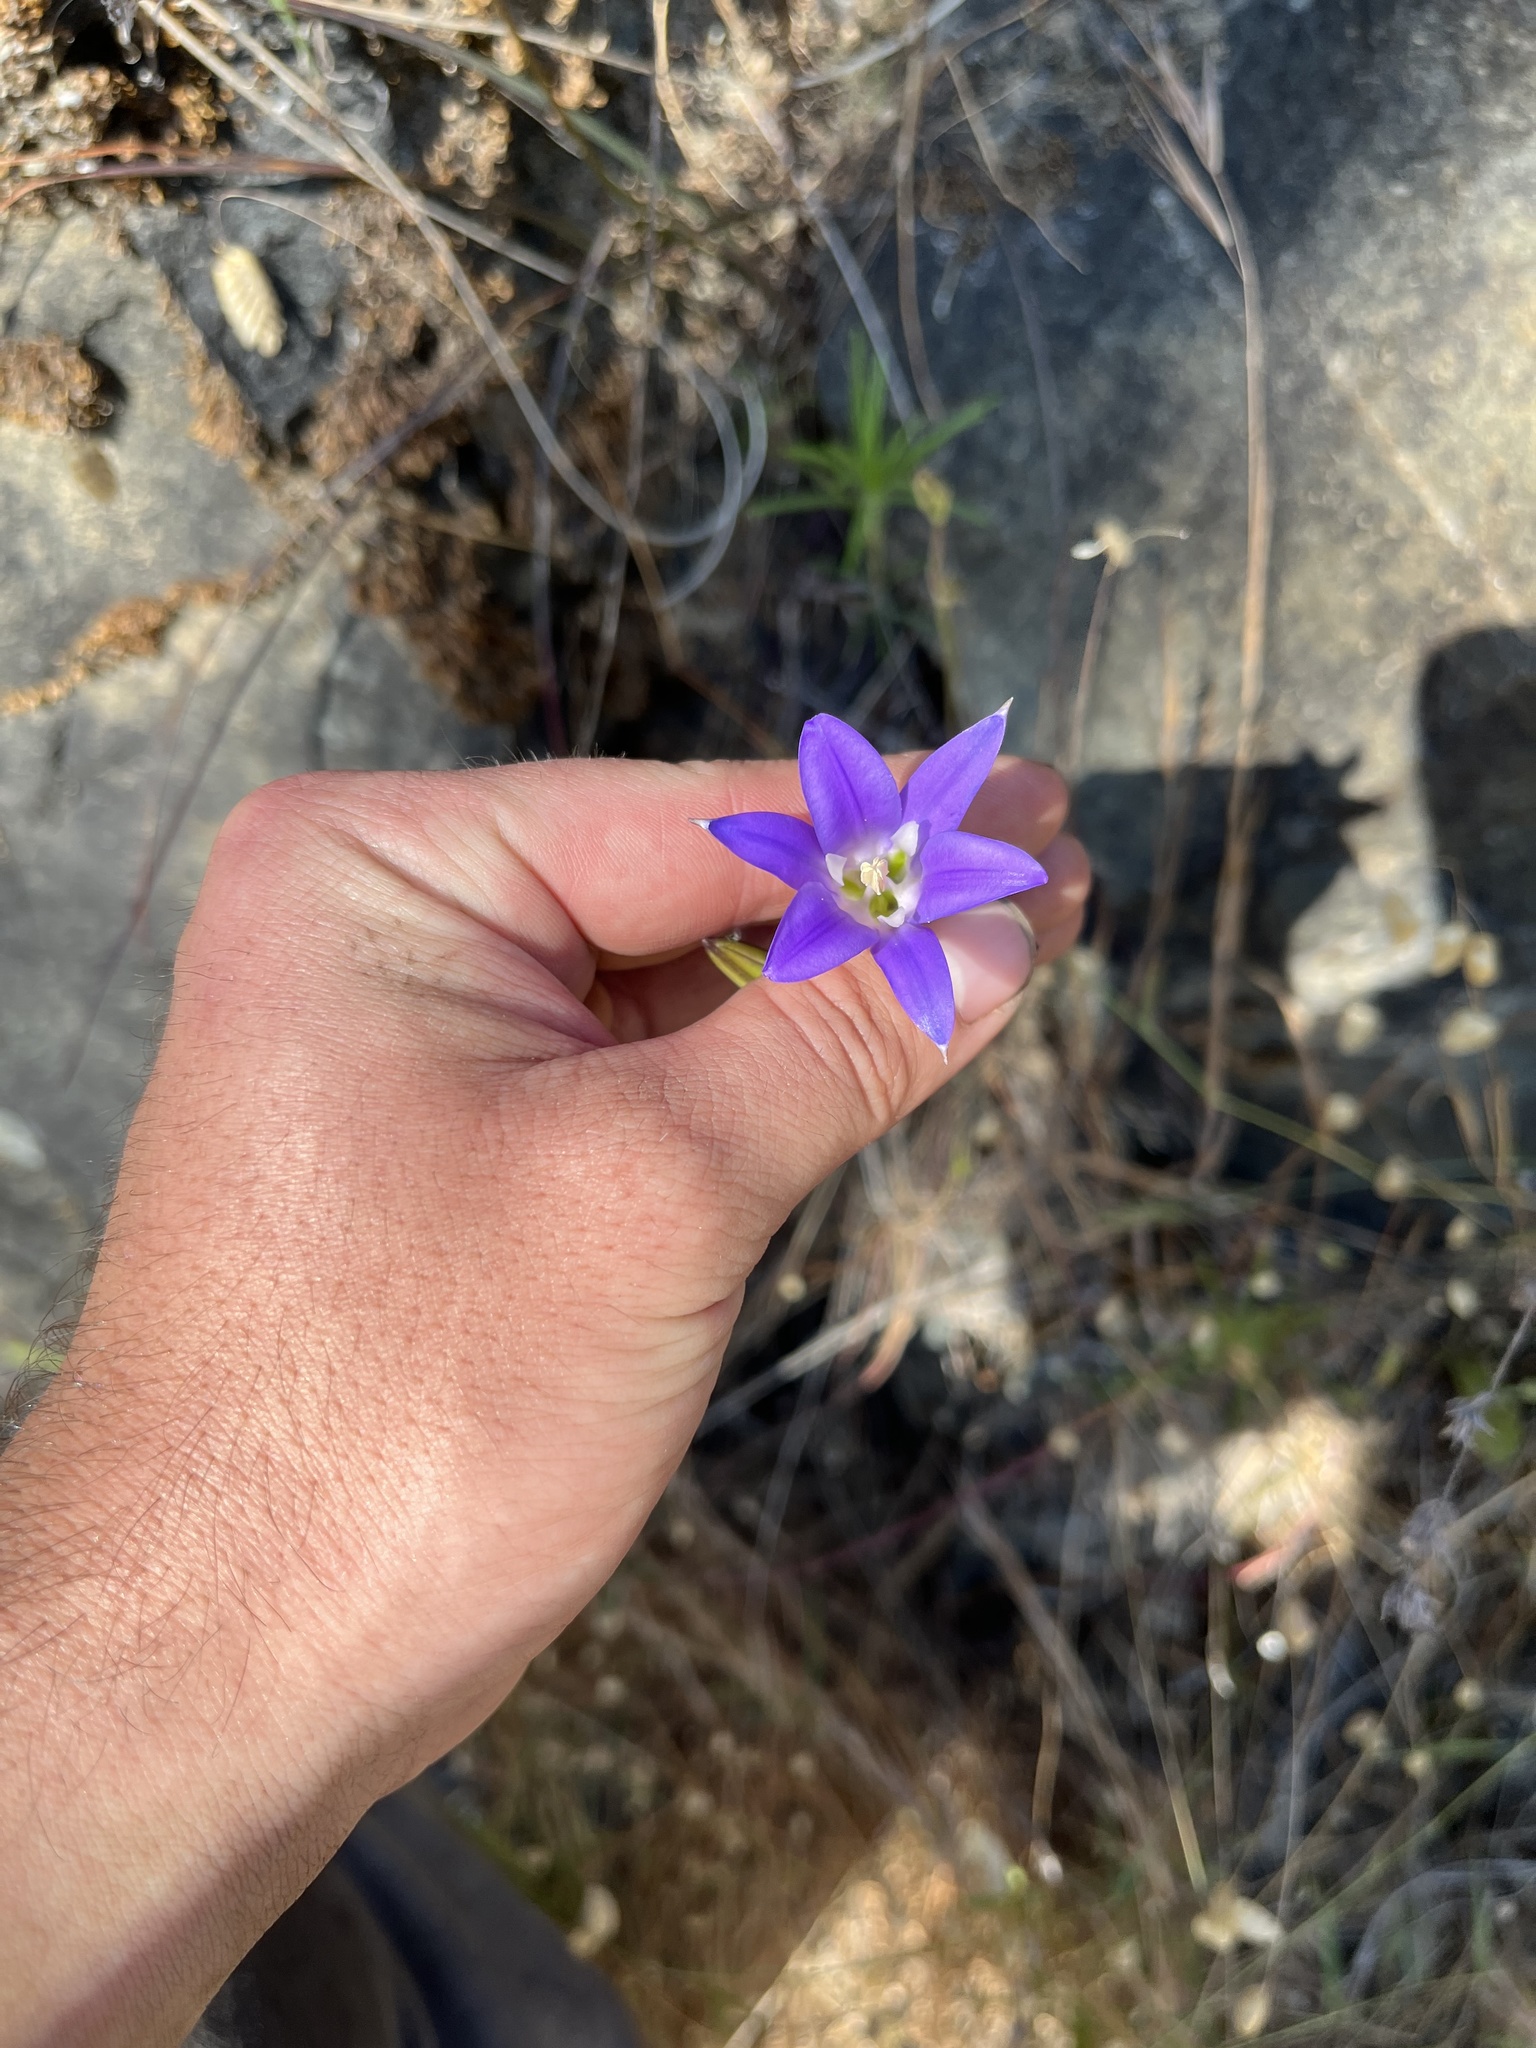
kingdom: Plantae
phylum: Tracheophyta
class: Liliopsida
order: Asparagales
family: Asparagaceae
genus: Brodiaea
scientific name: Brodiaea elegans
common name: Elegant cluster-lily
